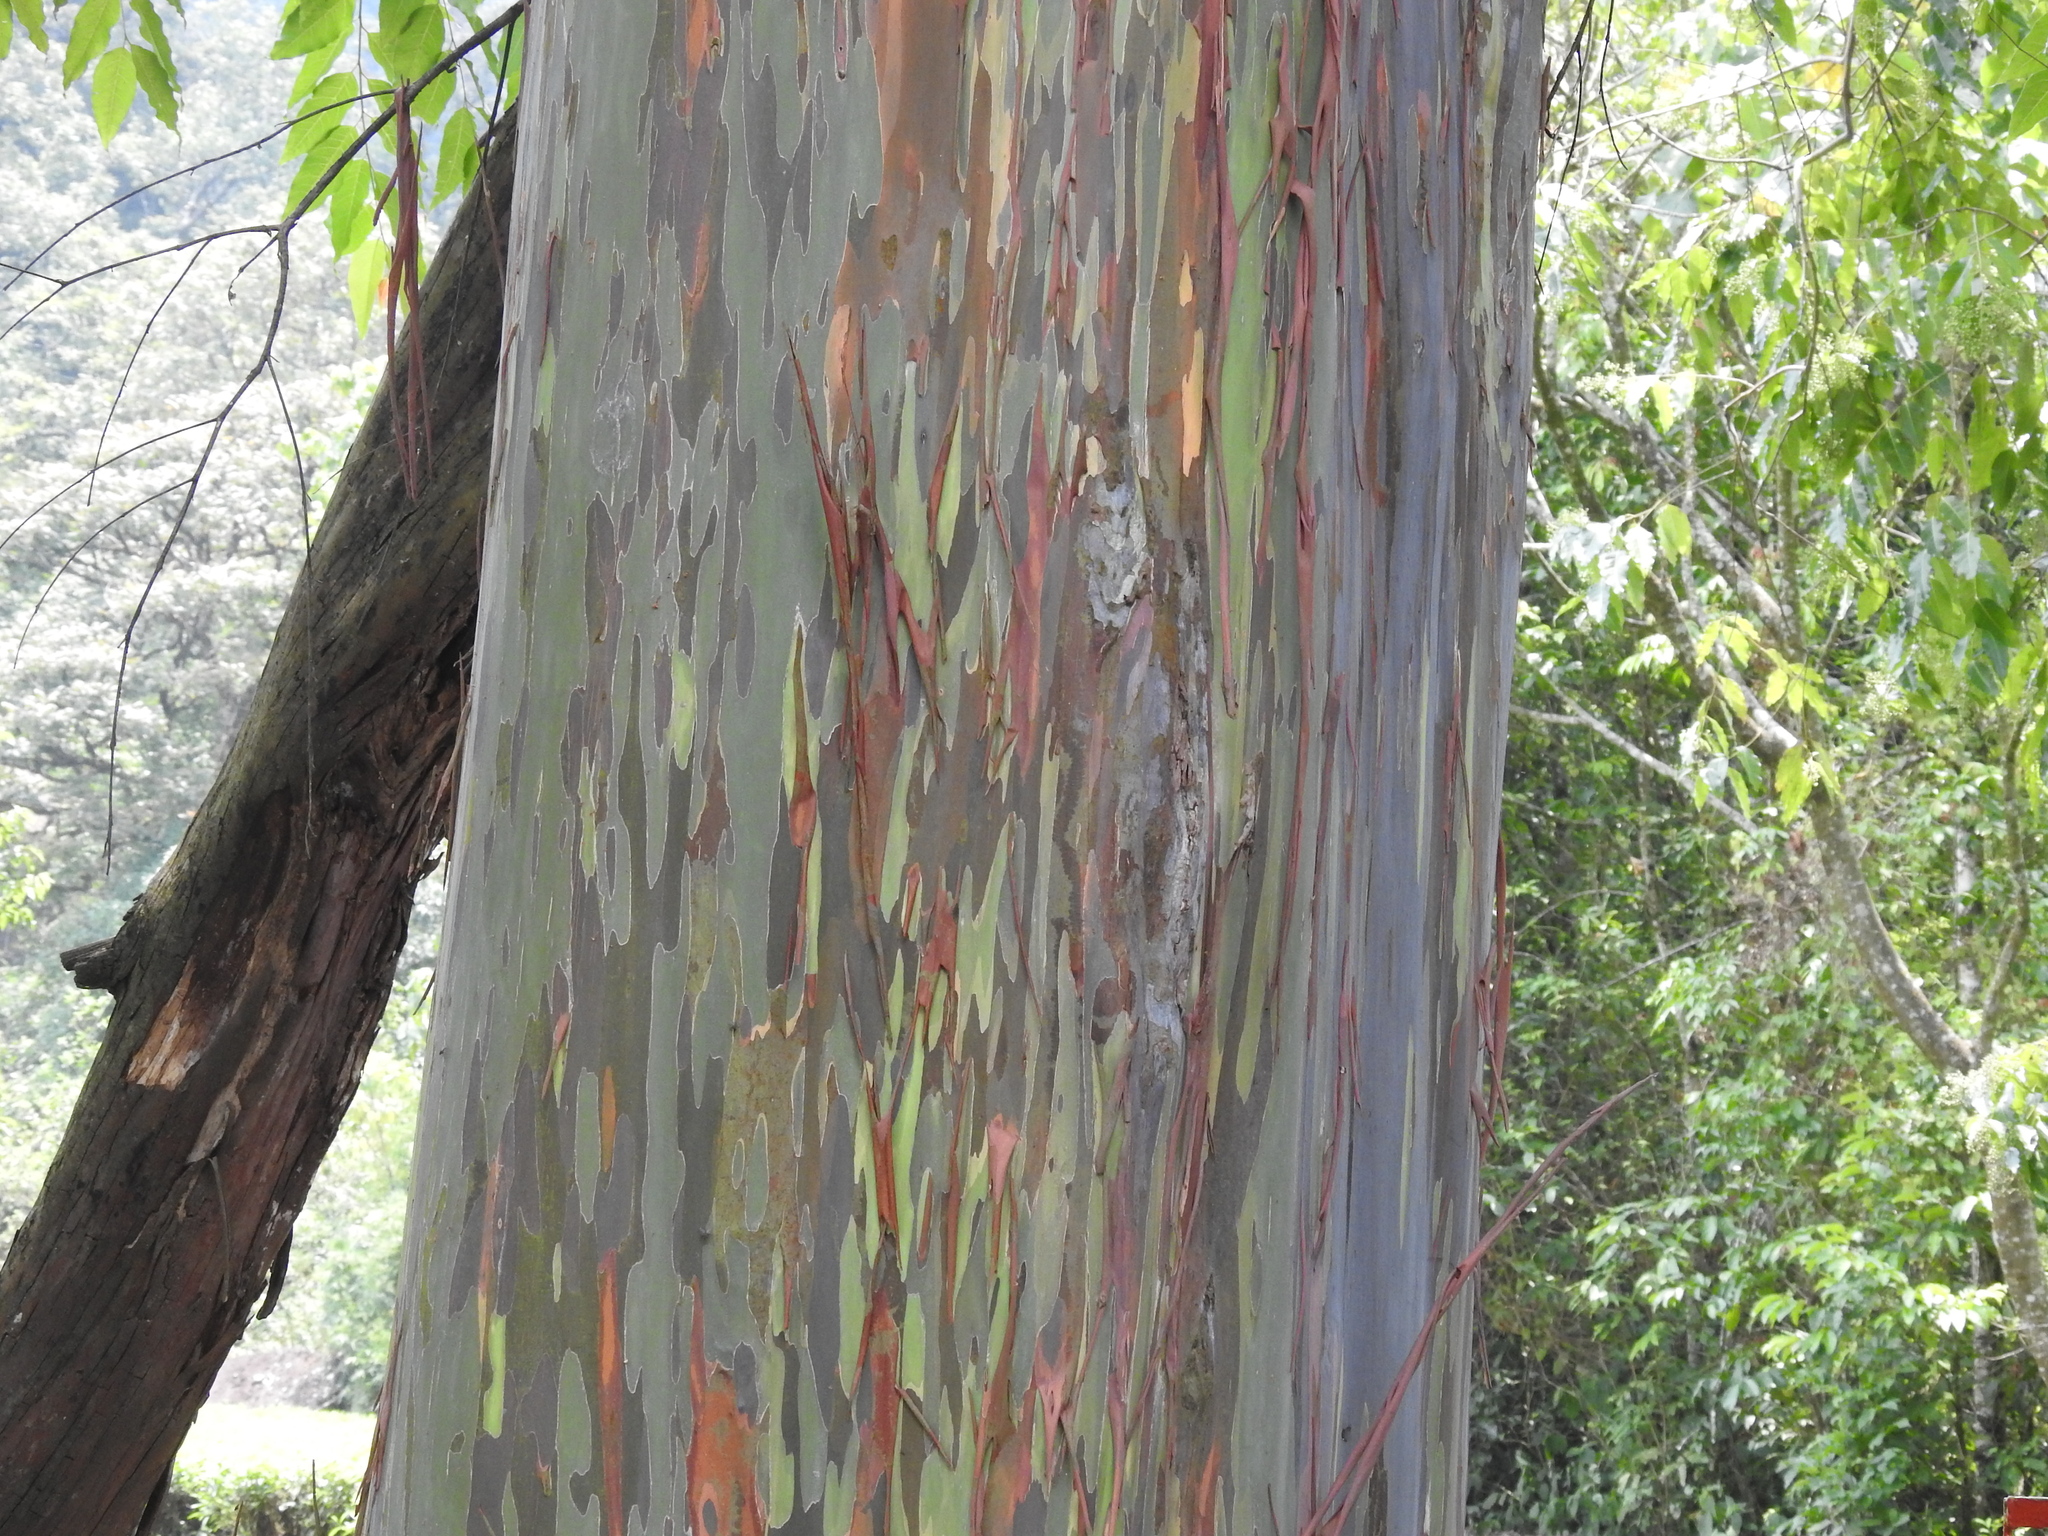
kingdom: Plantae
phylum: Tracheophyta
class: Magnoliopsida
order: Myrtales
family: Myrtaceae
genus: Eucalyptus
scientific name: Eucalyptus deglupta
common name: Mindanao gum
